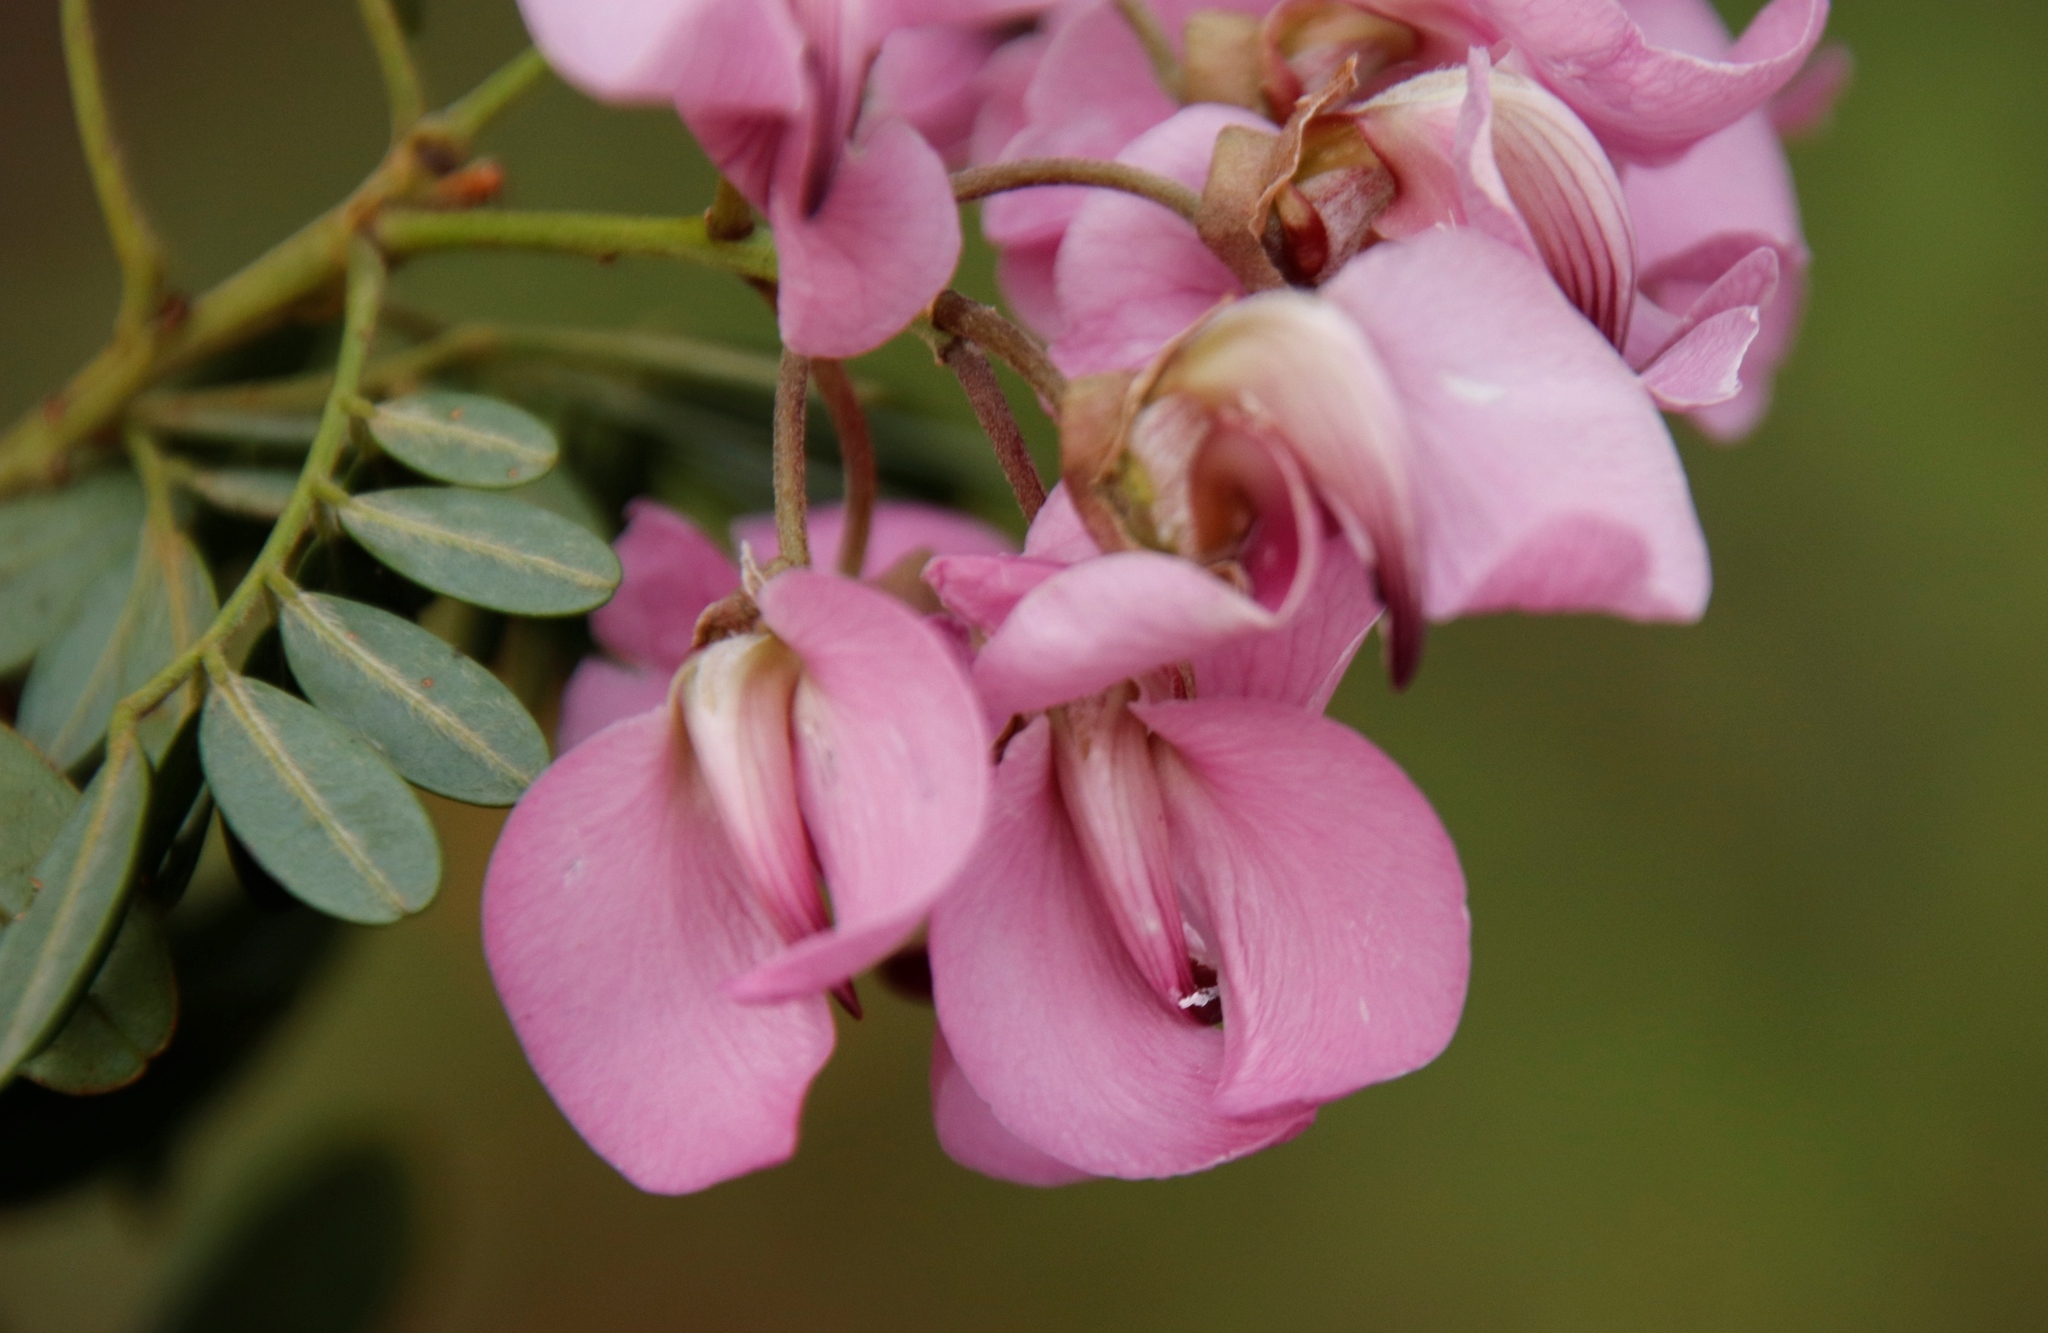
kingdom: Plantae
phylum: Tracheophyta
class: Magnoliopsida
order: Fabales
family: Fabaceae
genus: Virgilia
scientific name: Virgilia divaricata
